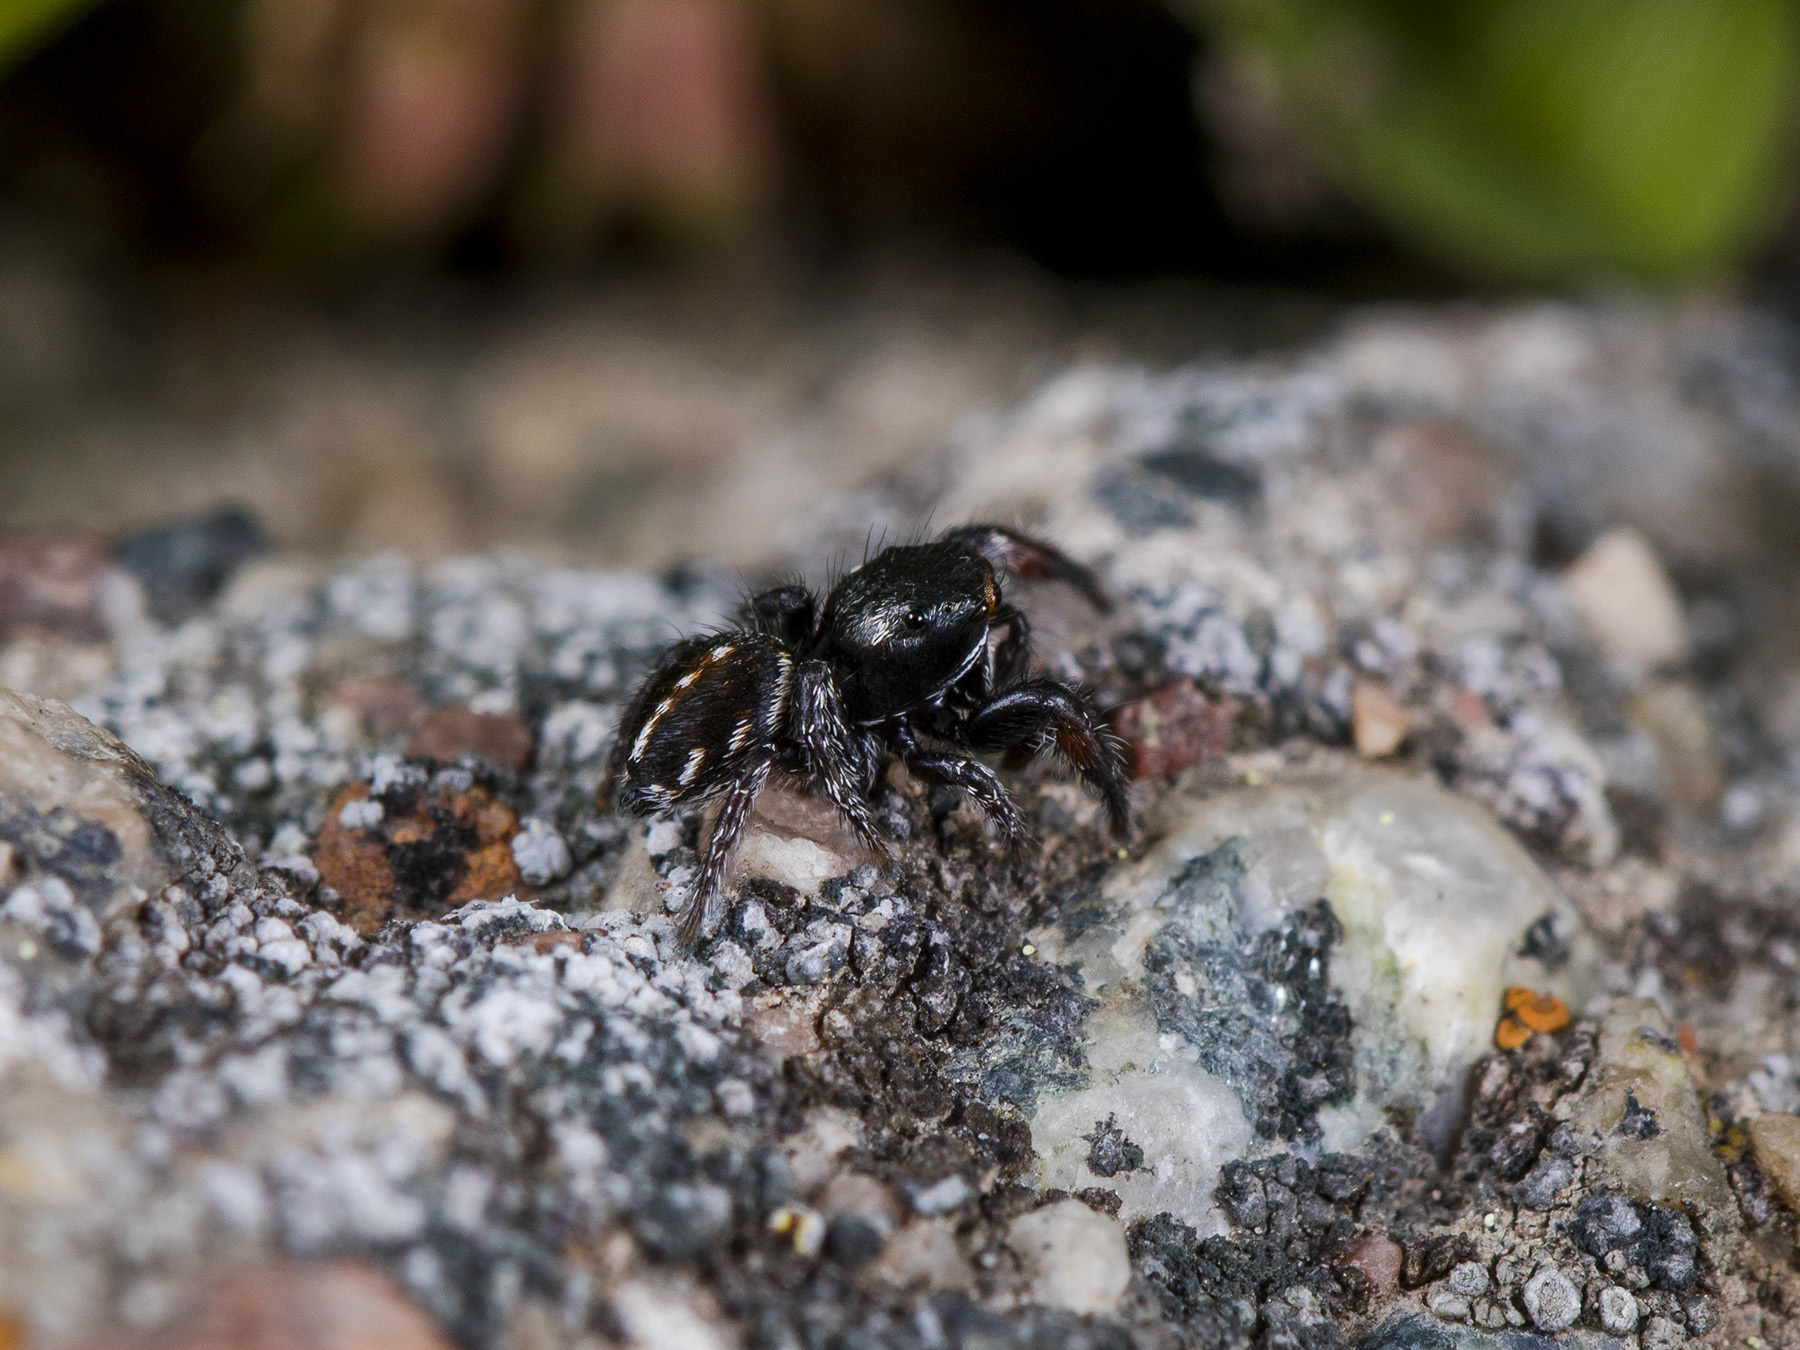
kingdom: Animalia
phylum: Arthropoda
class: Arachnida
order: Araneae
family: Salticidae
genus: Pellenes
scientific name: Pellenes allegrii
